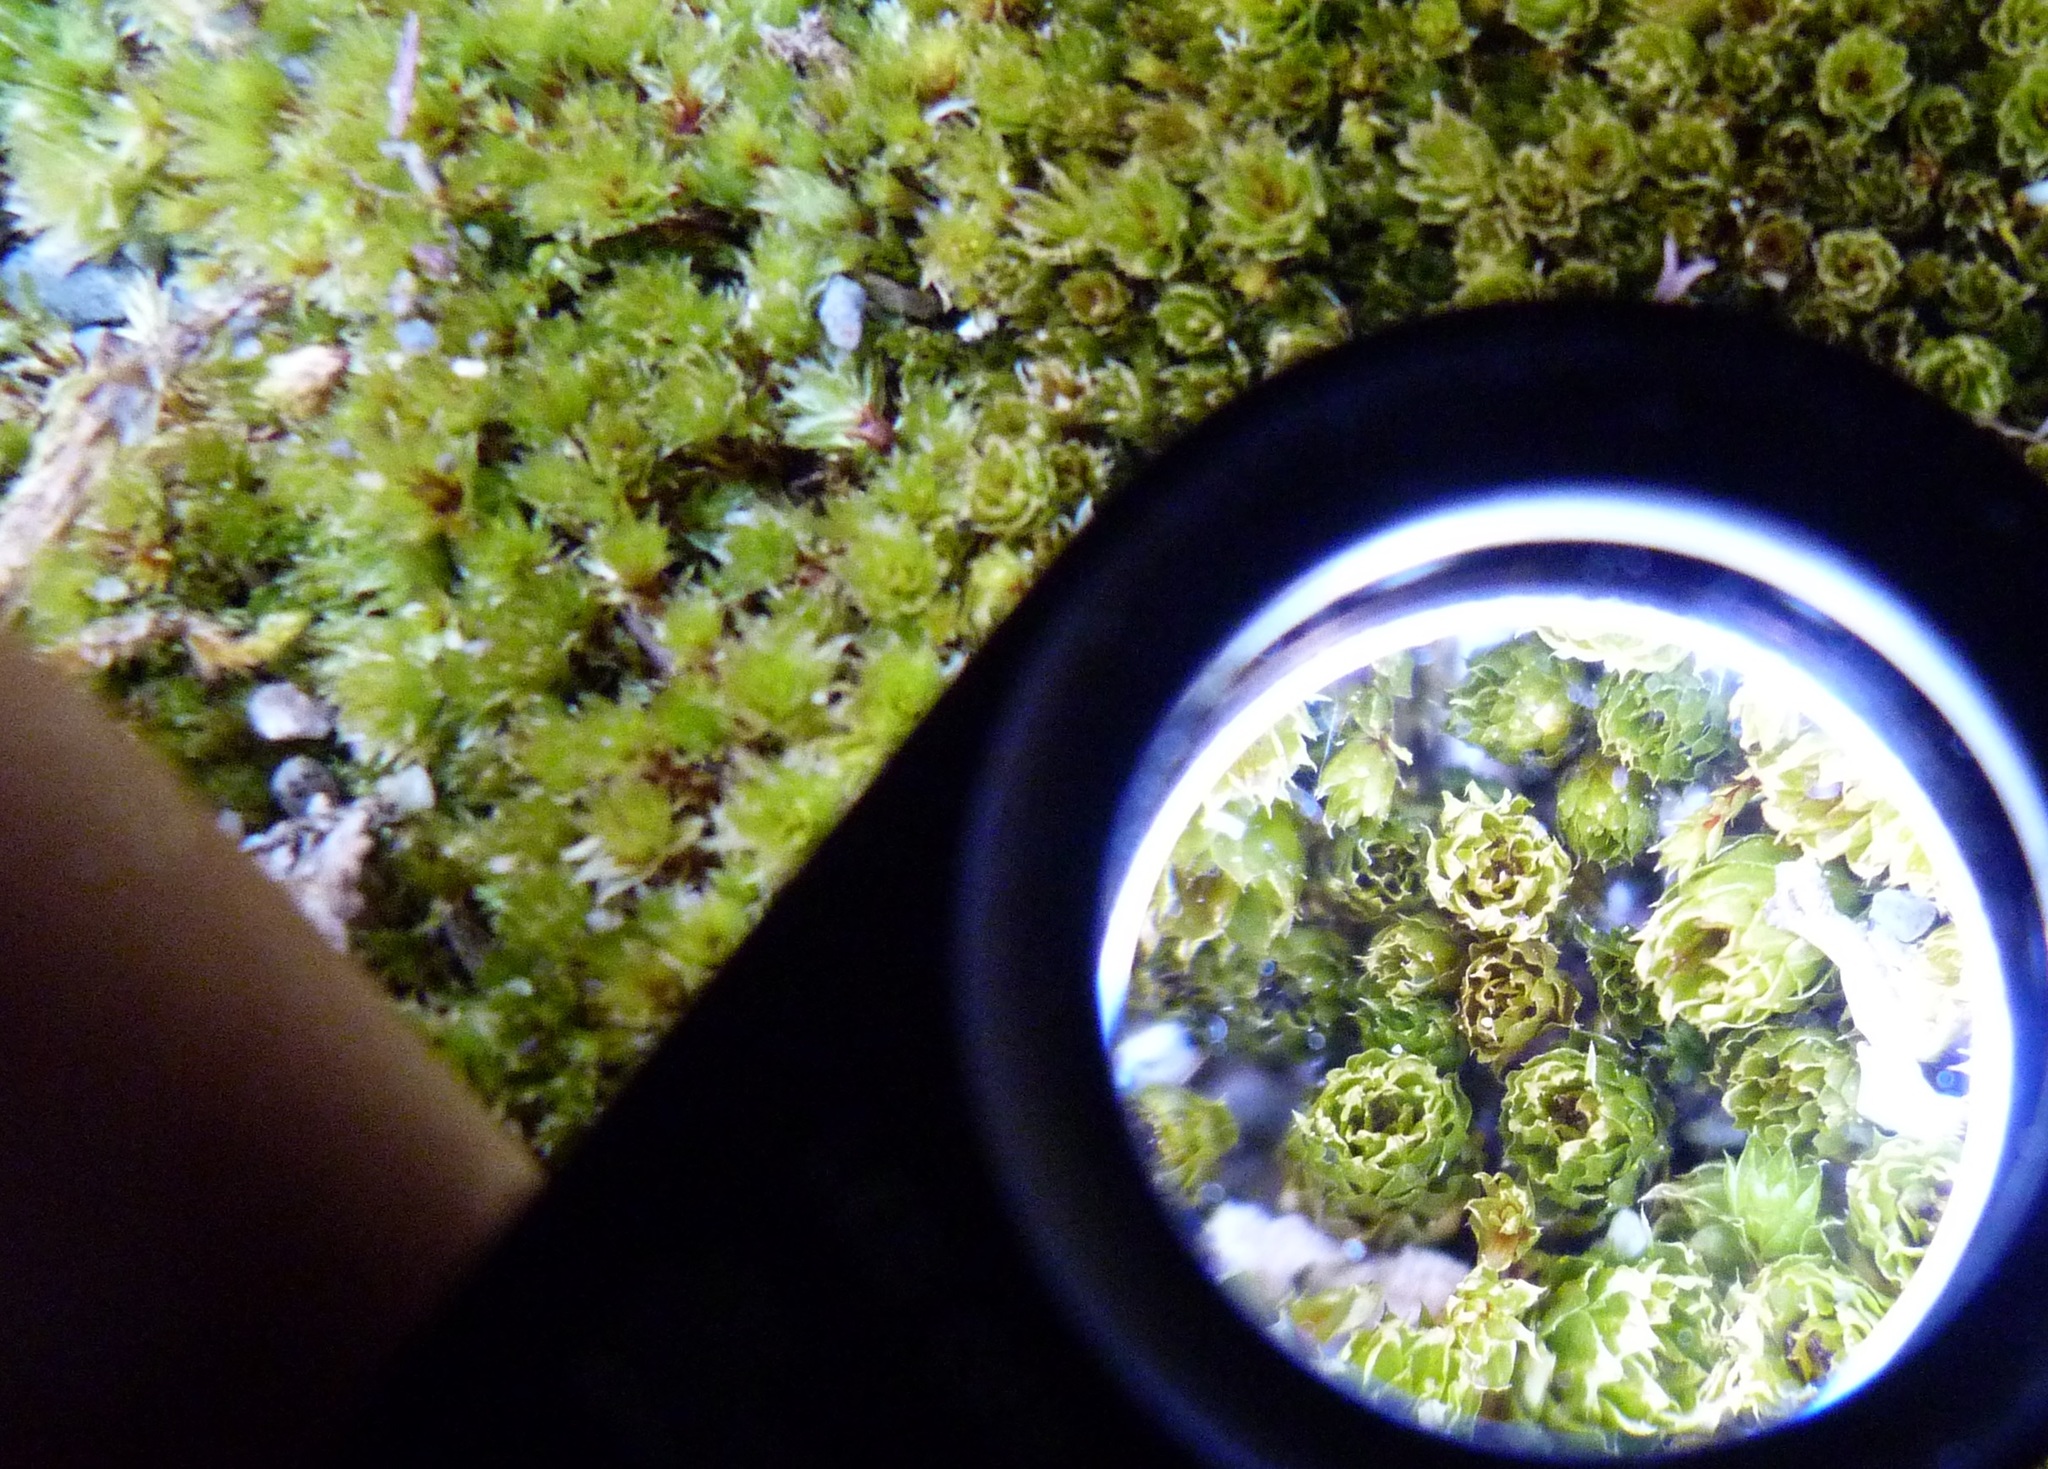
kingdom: Plantae
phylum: Bryophyta
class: Bryopsida
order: Bryales
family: Bryaceae
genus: Rosulabryum
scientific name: Rosulabryum truncorum
